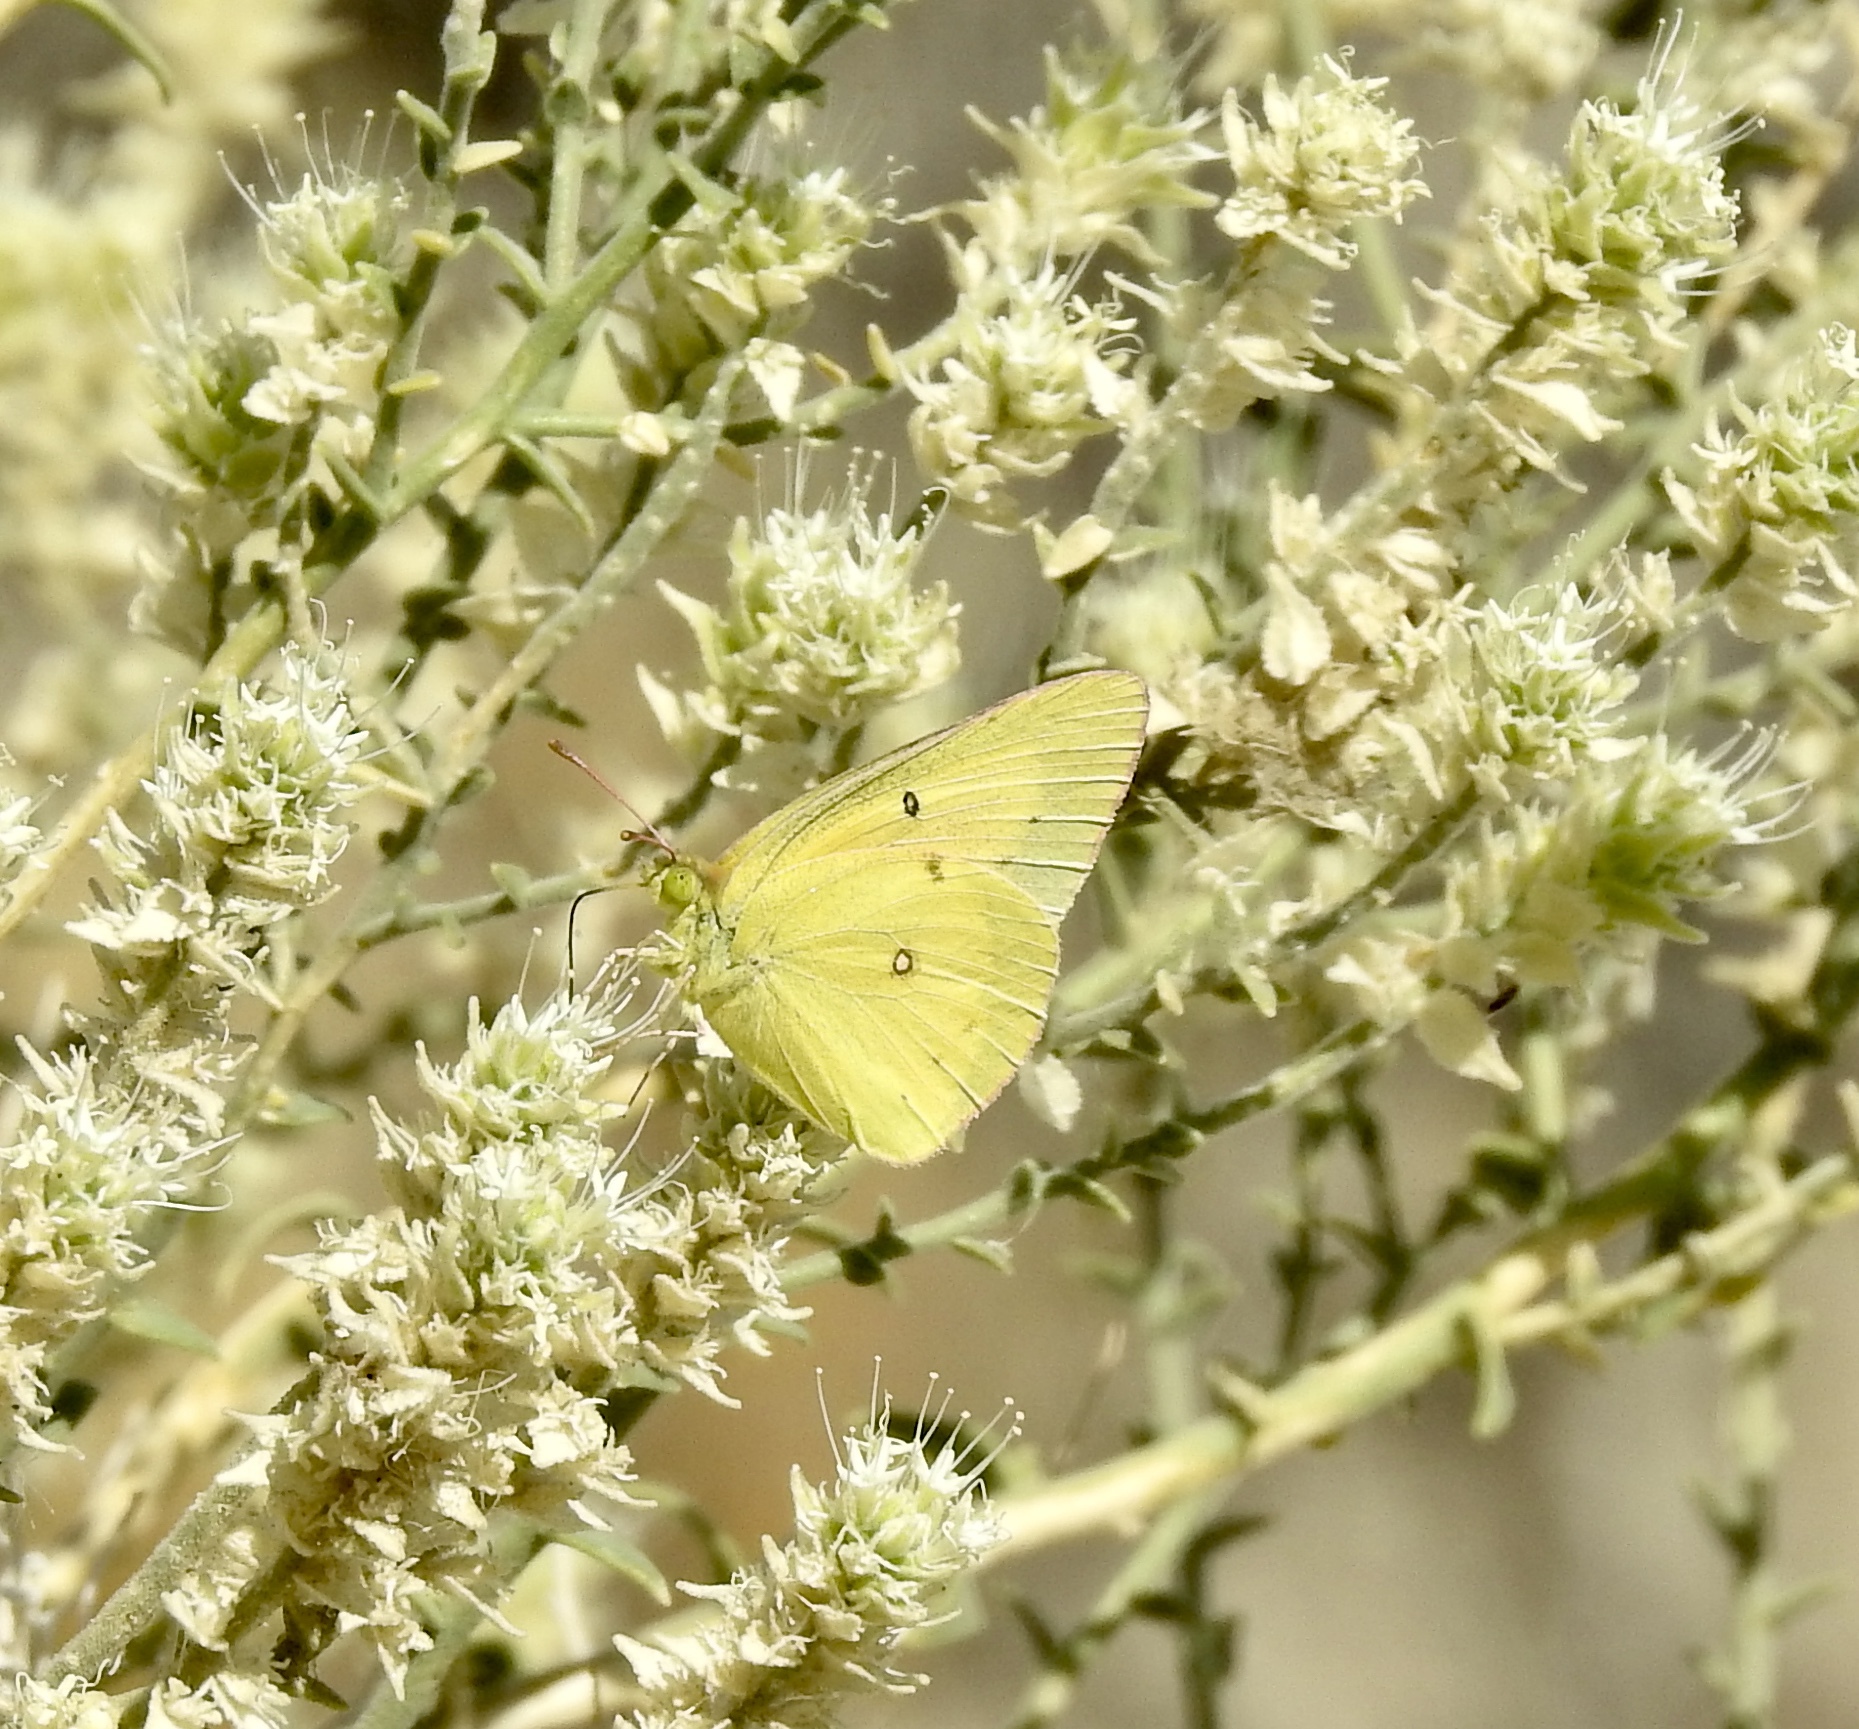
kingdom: Animalia
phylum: Arthropoda
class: Insecta
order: Lepidoptera
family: Pieridae
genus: Colias
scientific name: Colias eurytheme
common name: Alfalfa butterfly
